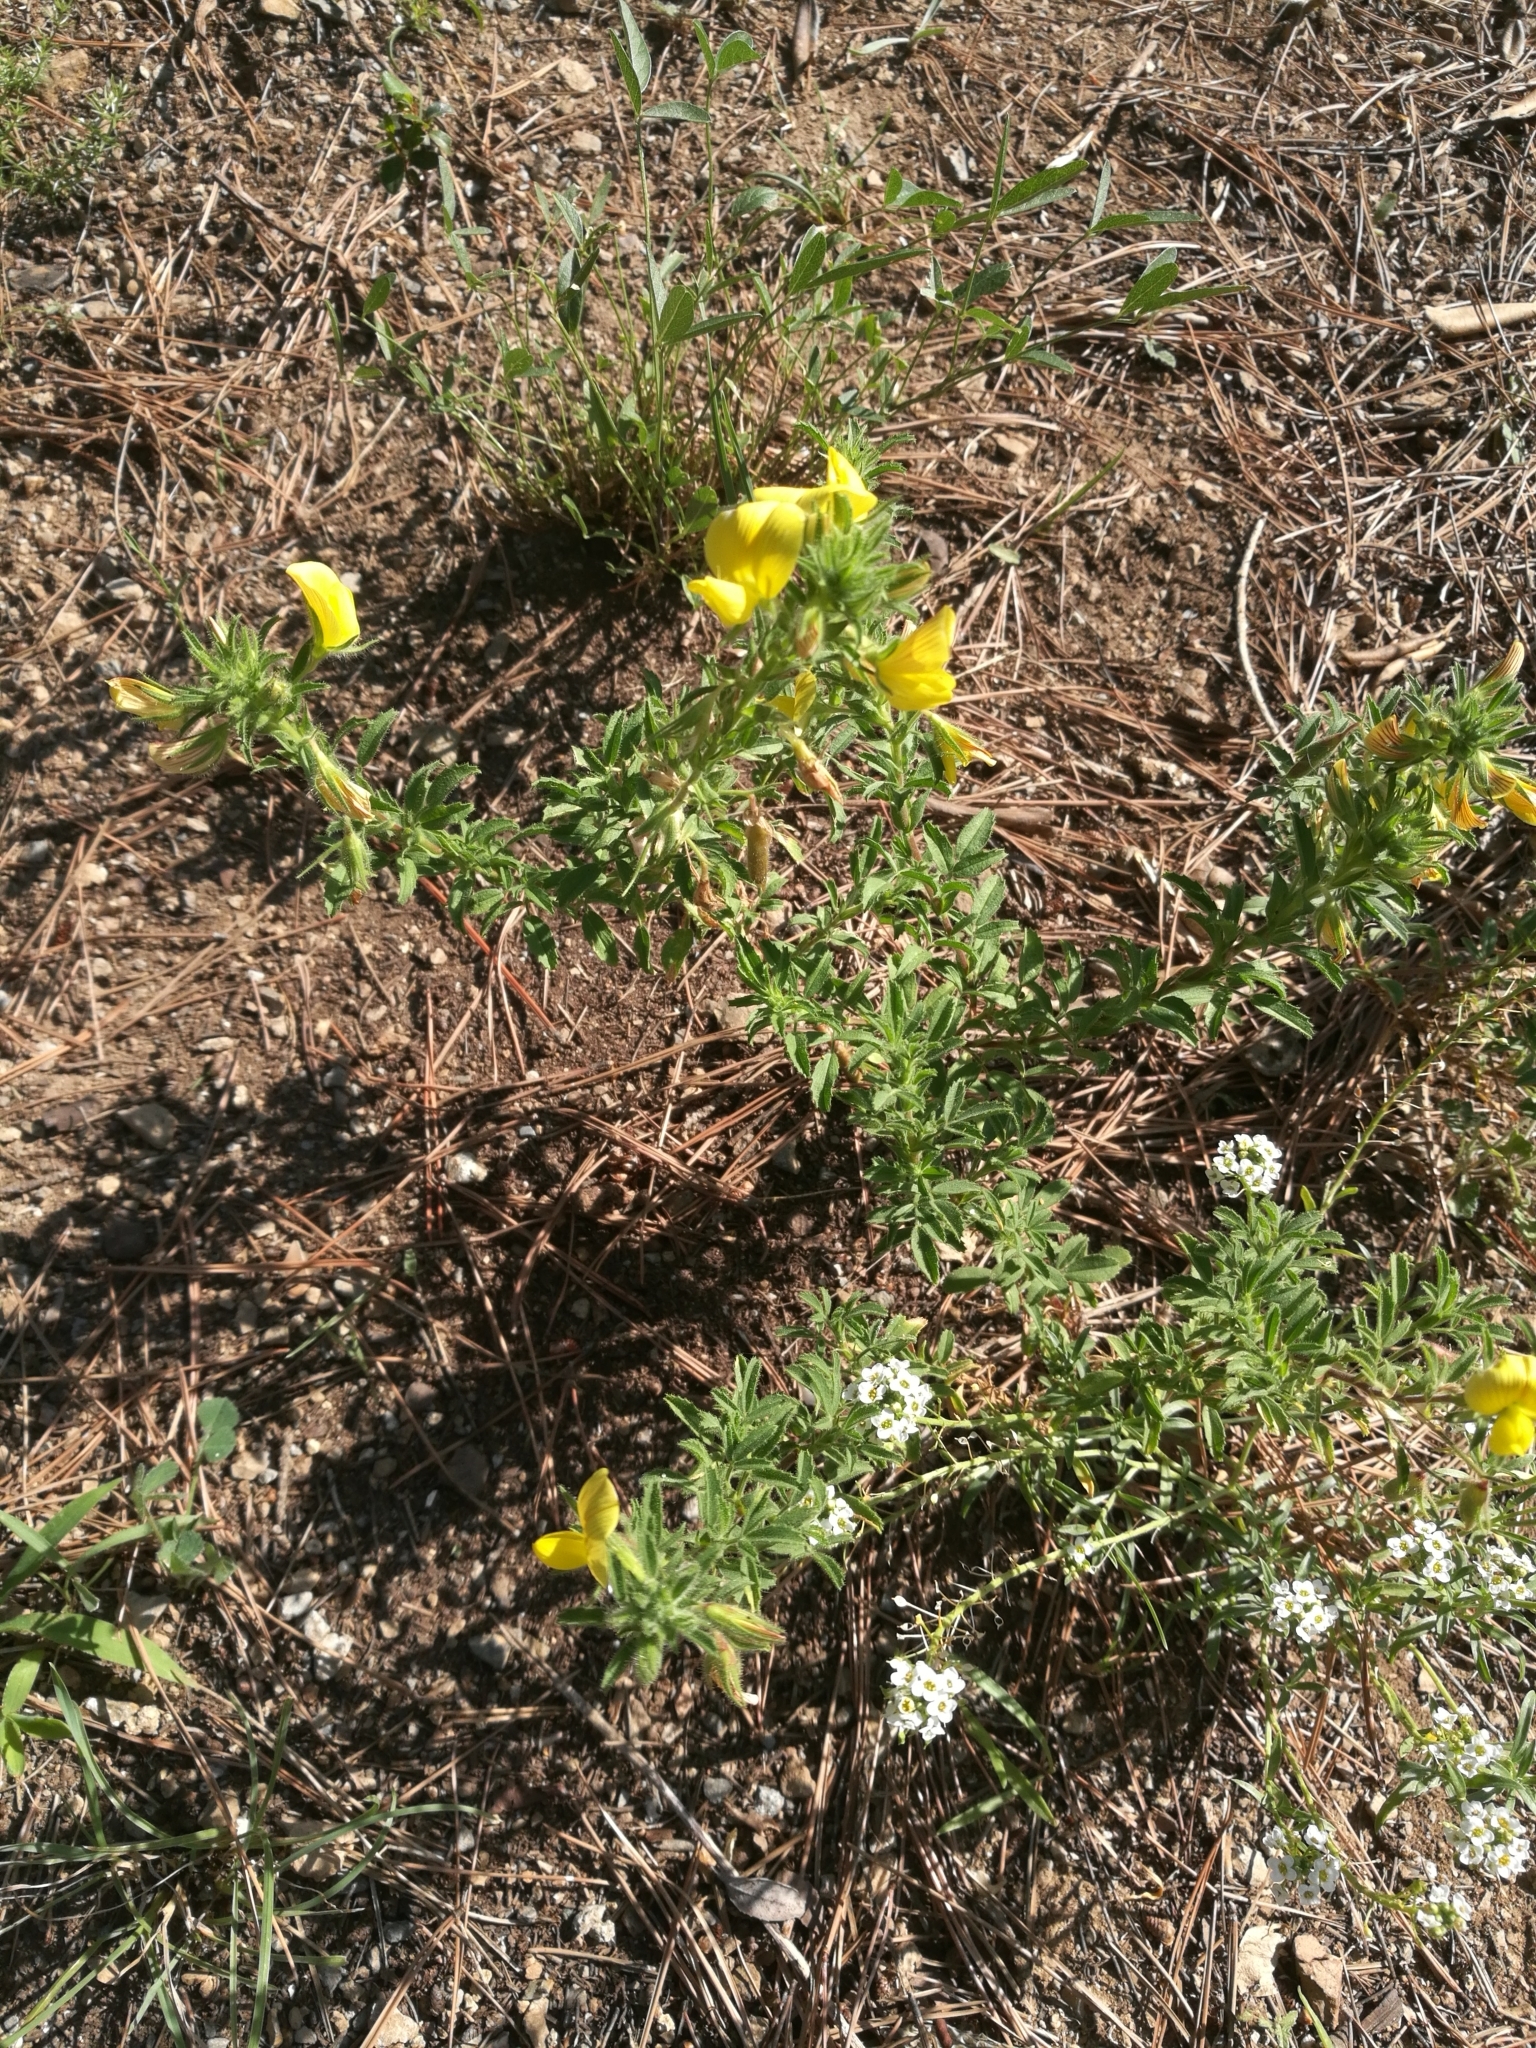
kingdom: Plantae
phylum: Tracheophyta
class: Magnoliopsida
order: Fabales
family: Fabaceae
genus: Ononis
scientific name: Ononis natrix
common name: Yellow restharrow
